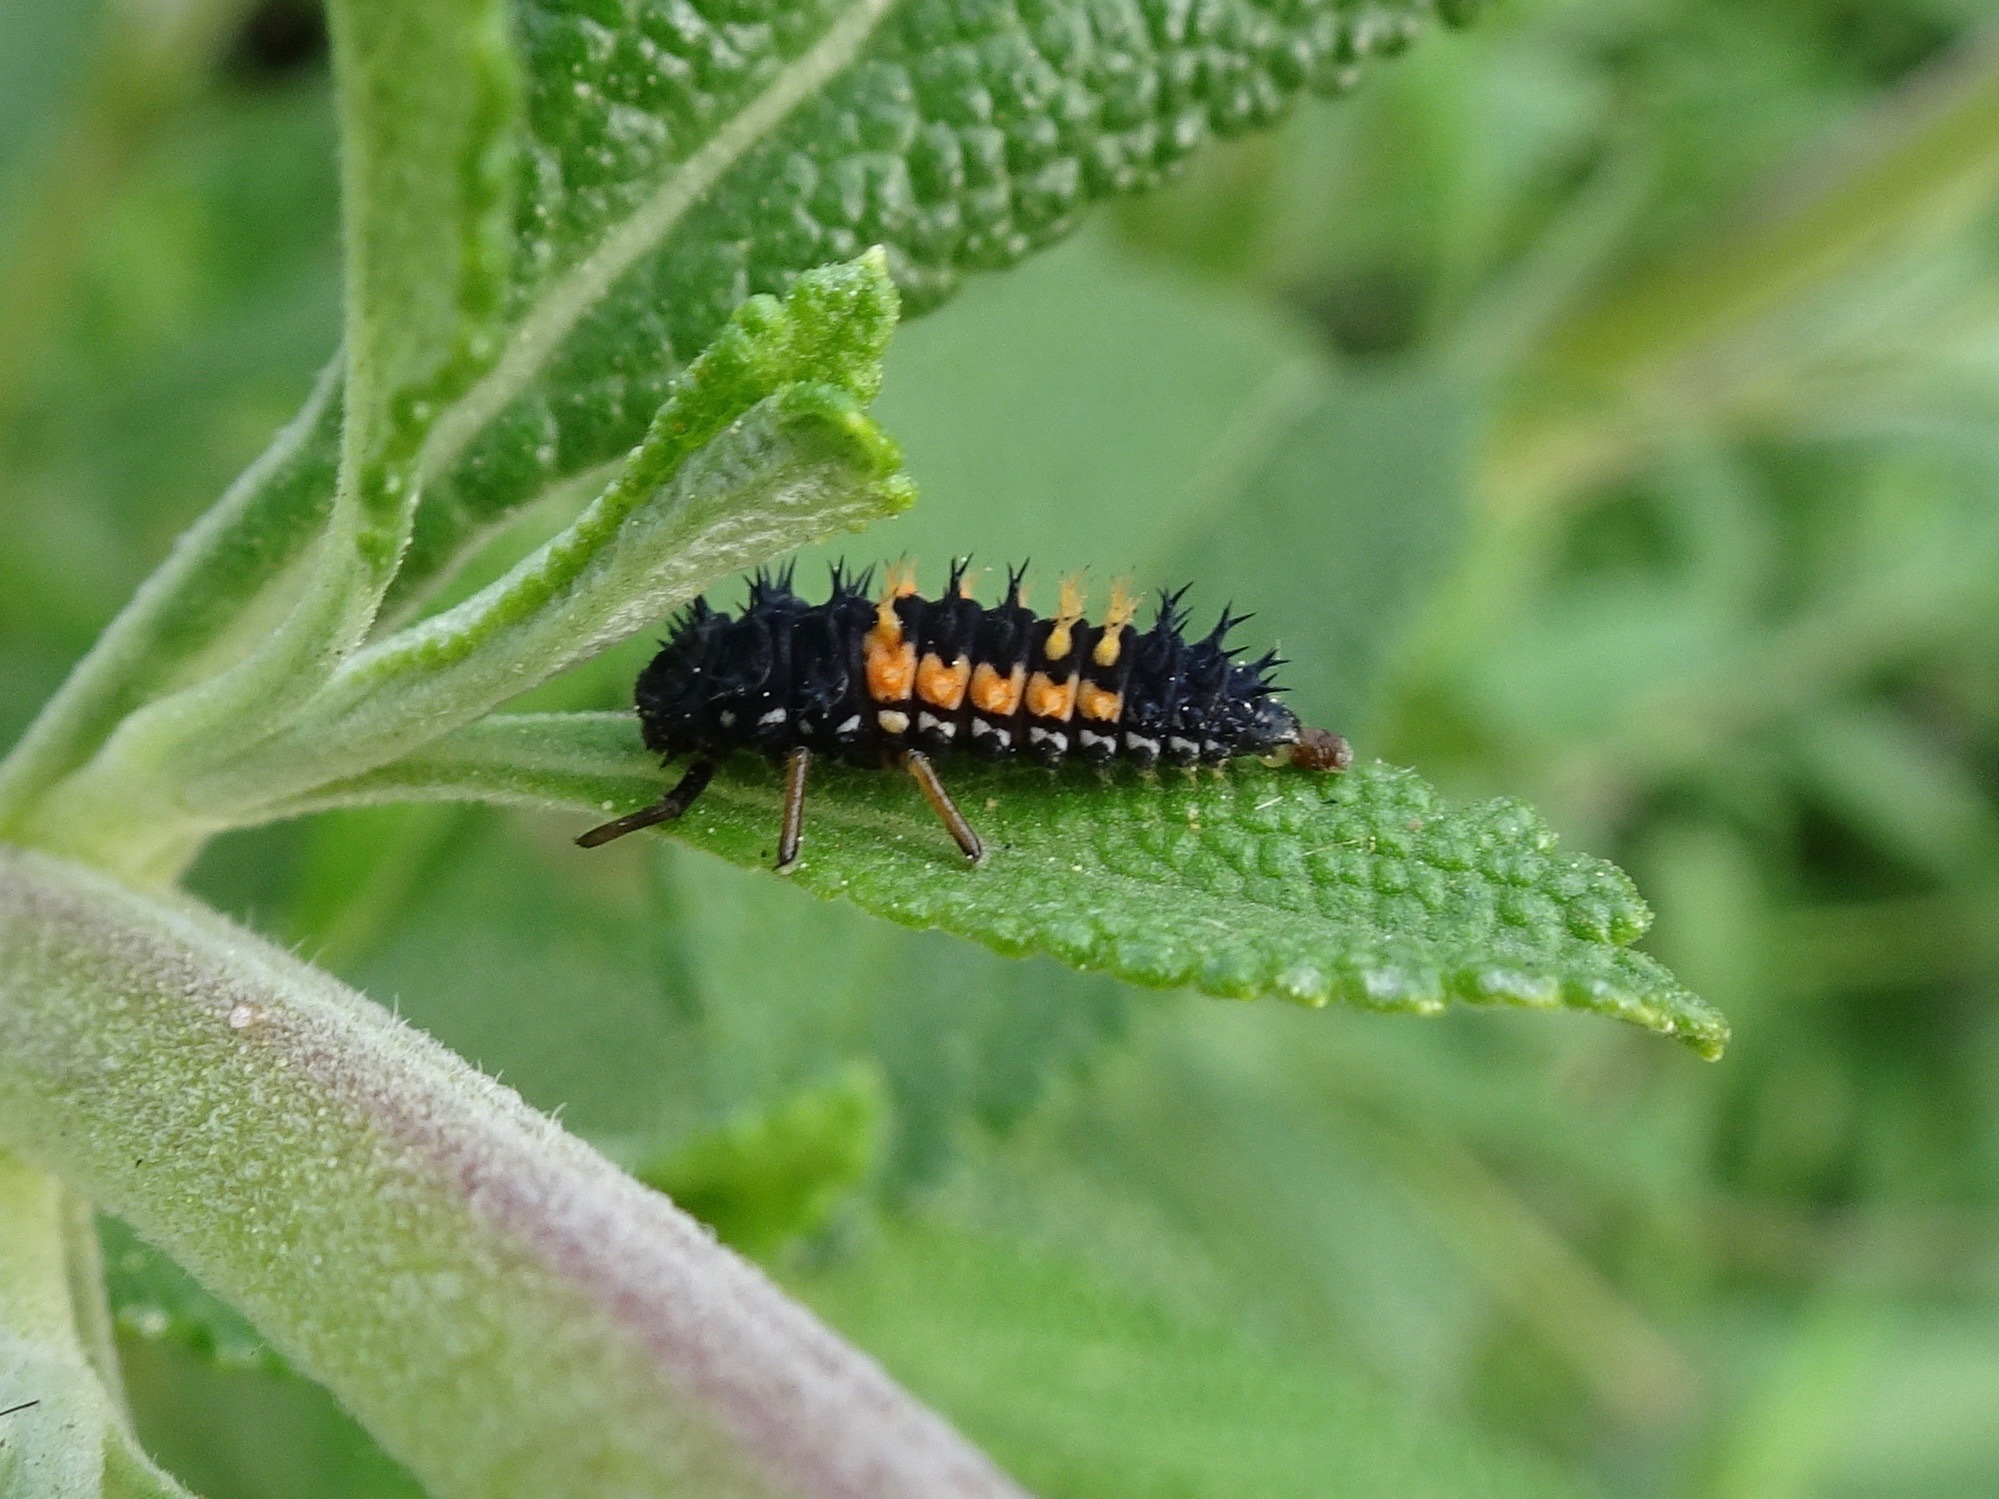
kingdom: Animalia
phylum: Arthropoda
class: Insecta
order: Coleoptera
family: Coccinellidae
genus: Harmonia
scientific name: Harmonia axyridis
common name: Harlequin ladybird
